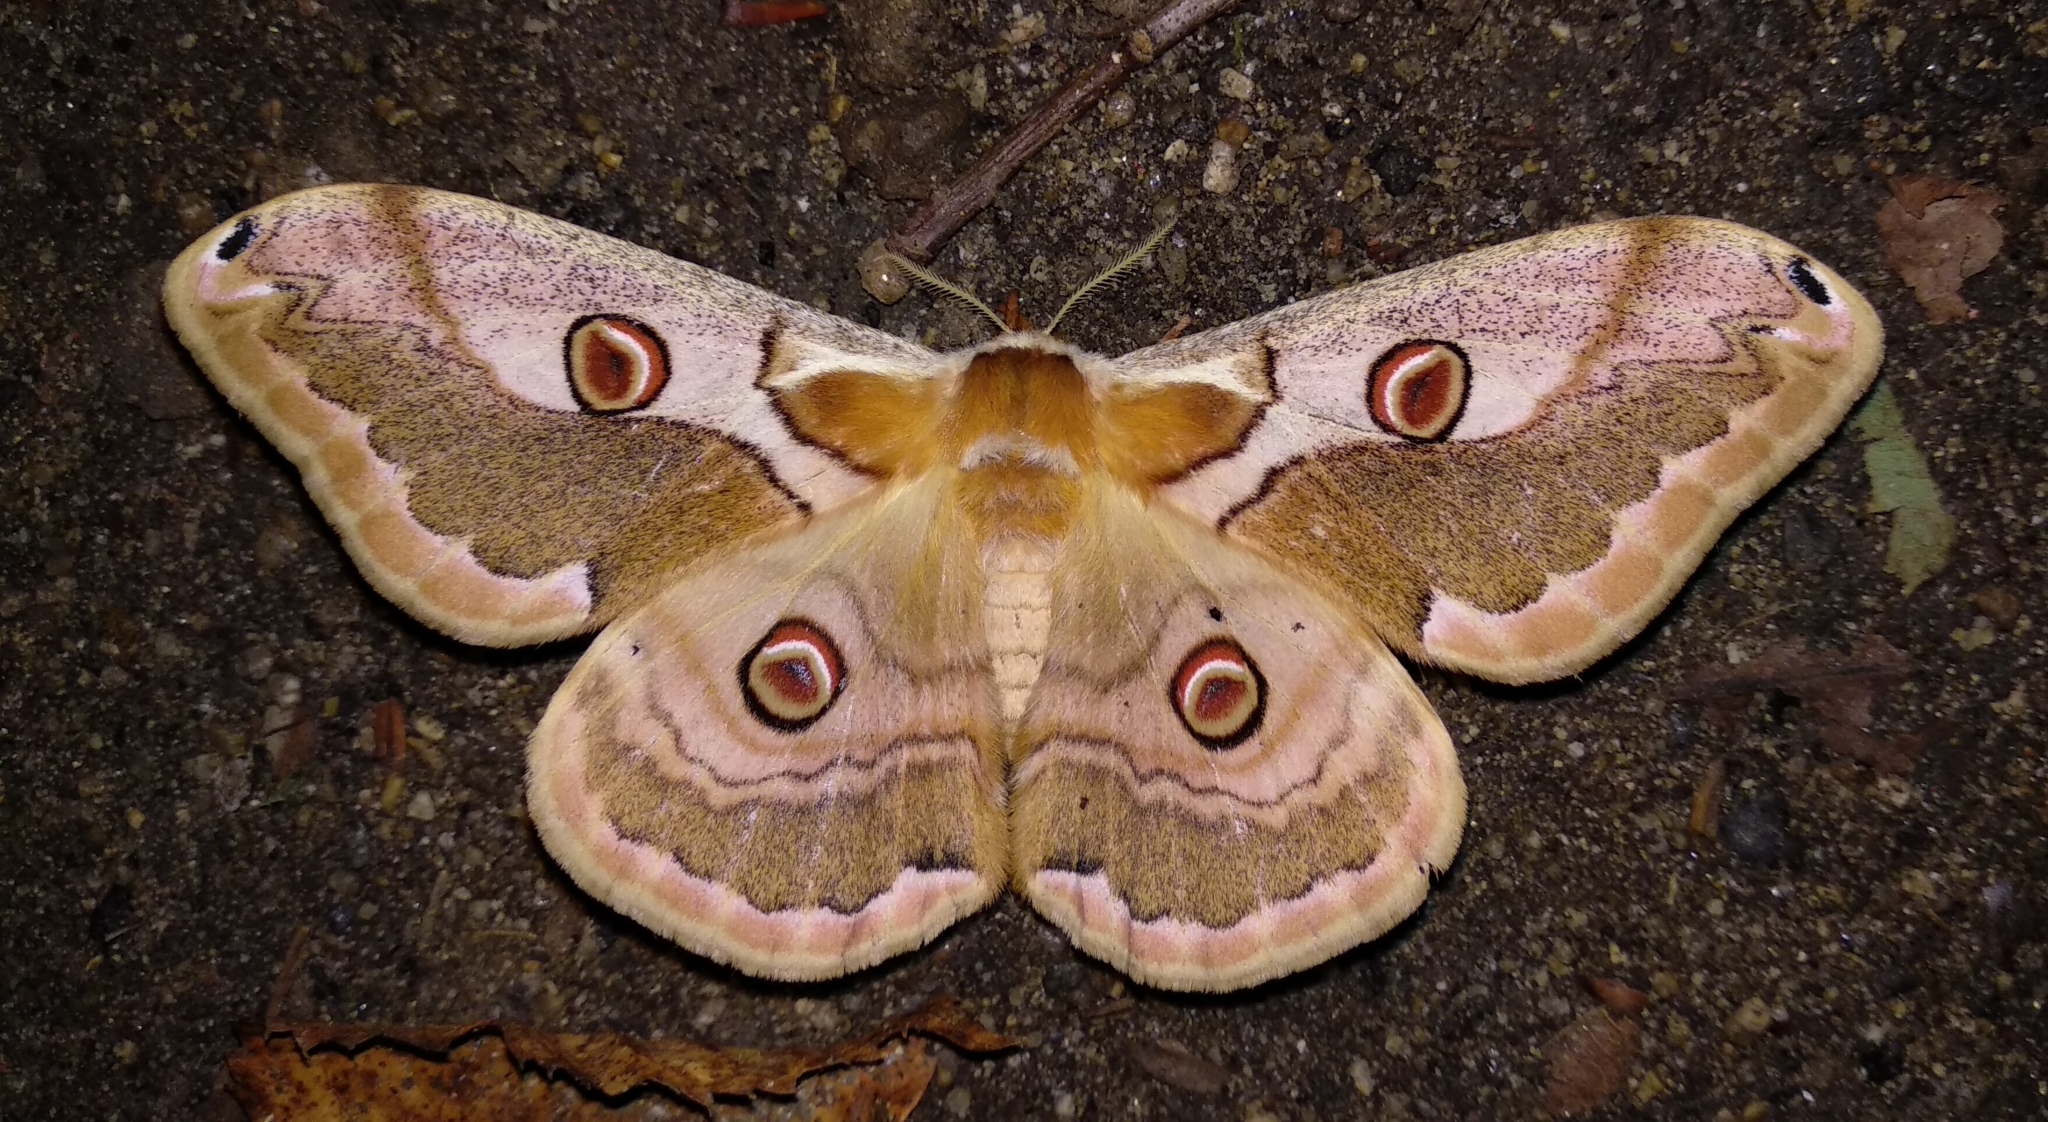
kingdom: Animalia
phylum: Arthropoda
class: Insecta
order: Lepidoptera
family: Saturniidae
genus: Saturnia
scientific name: Saturnia boisduvalii
